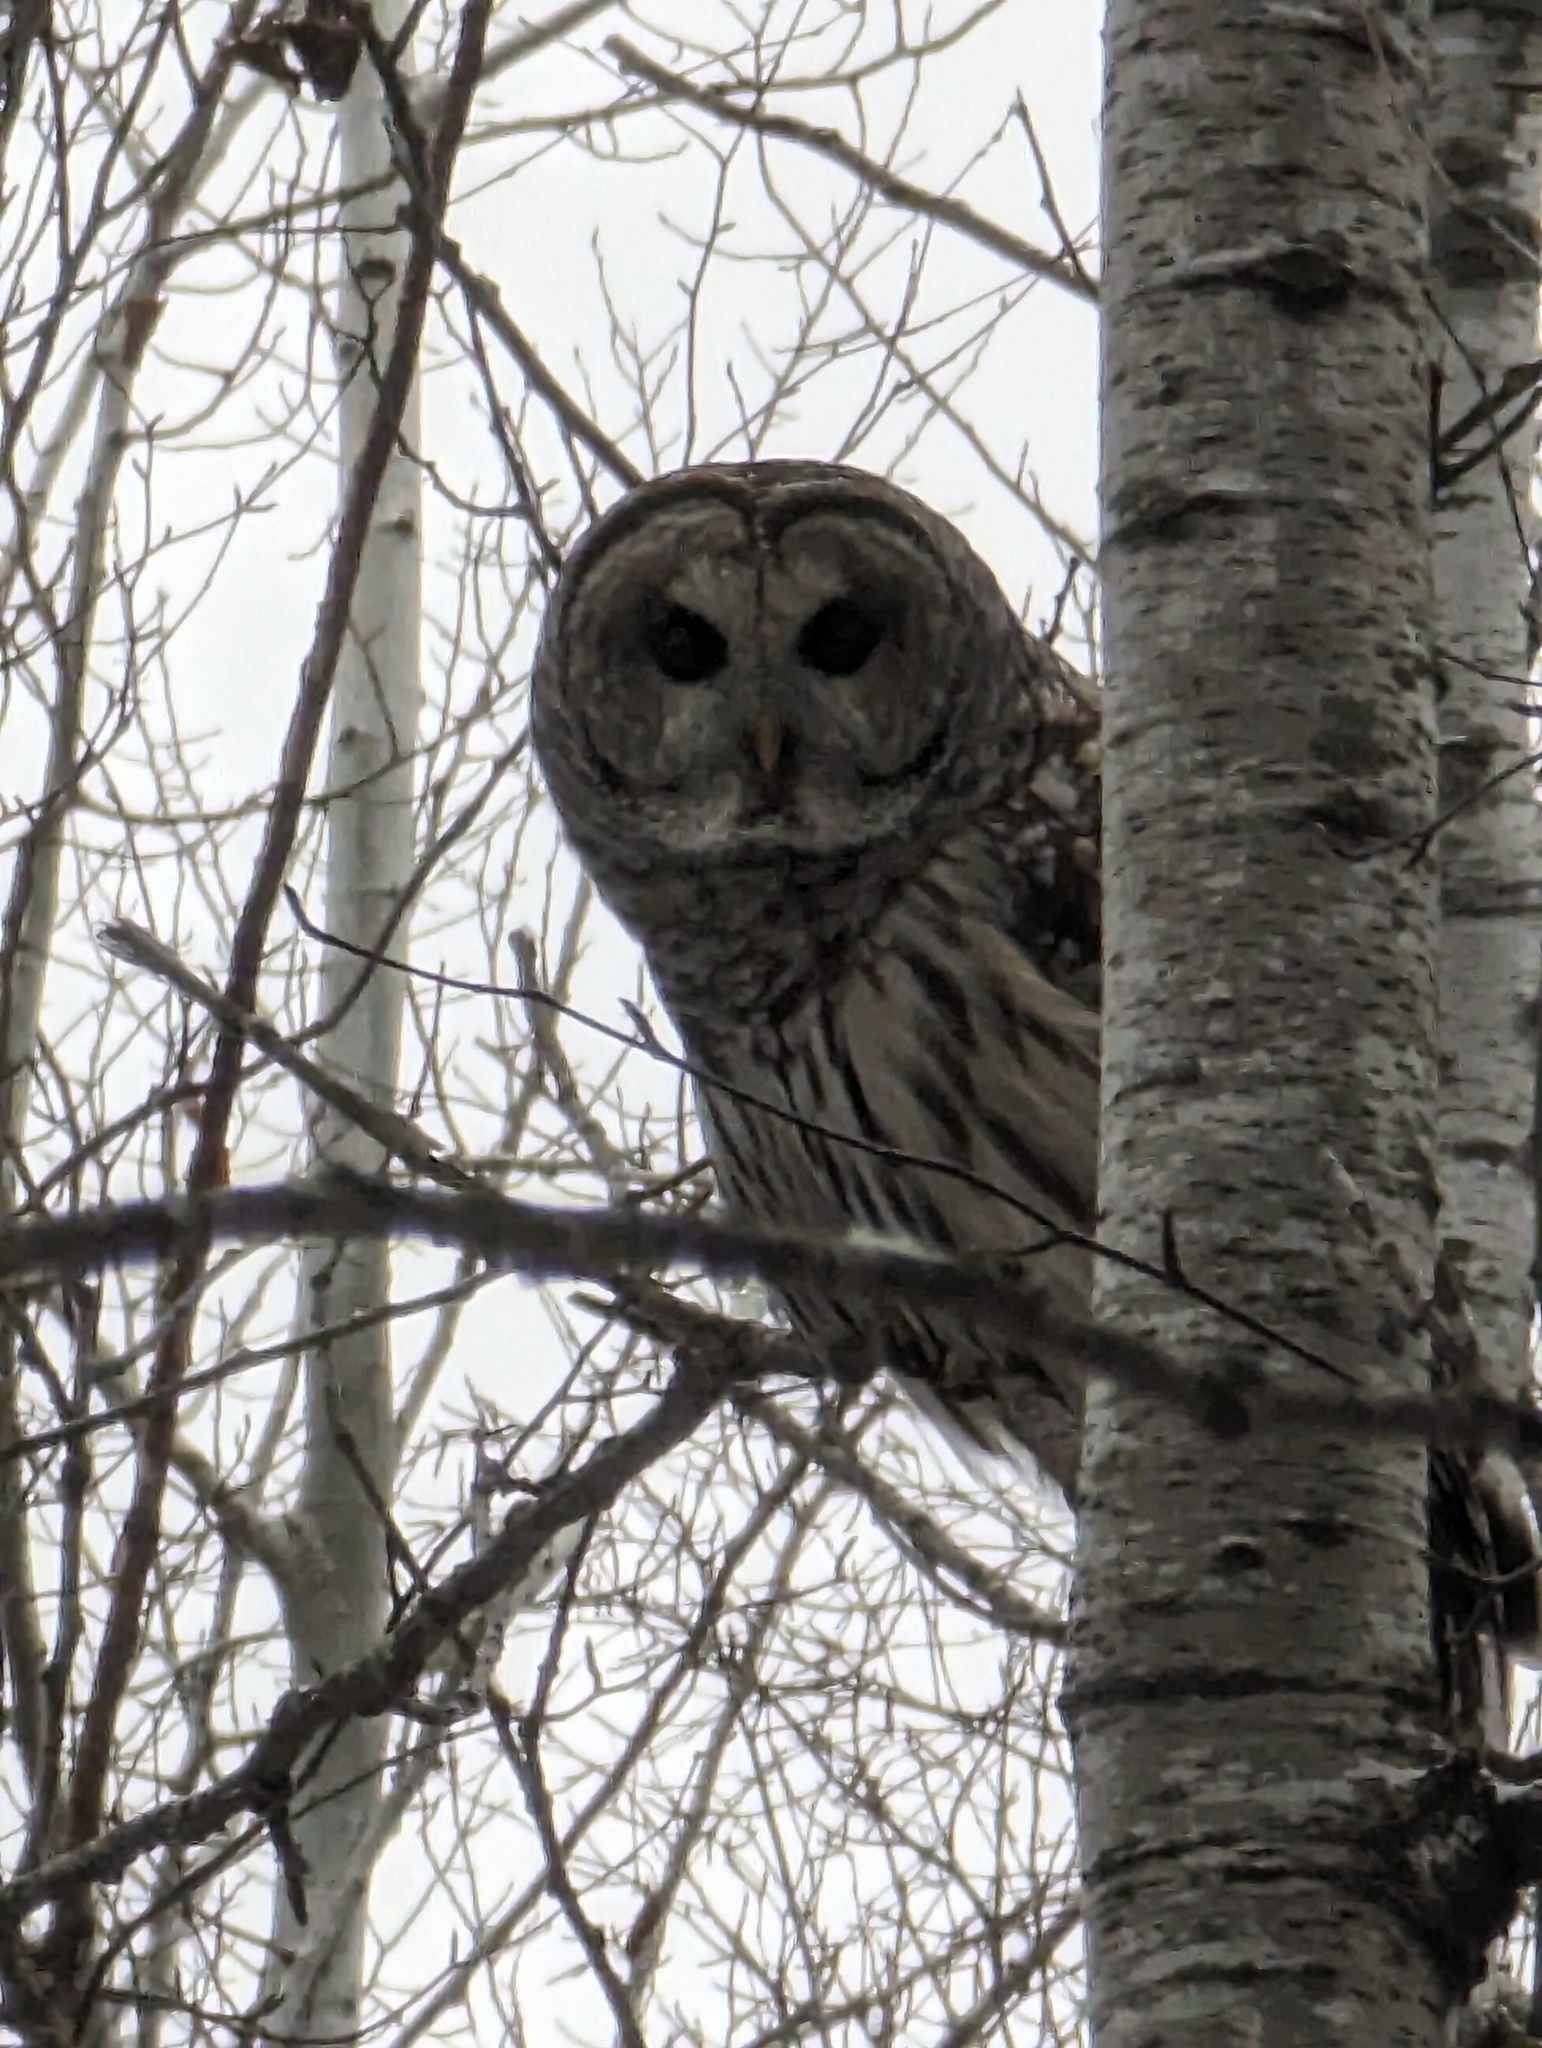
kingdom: Animalia
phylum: Chordata
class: Aves
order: Strigiformes
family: Strigidae
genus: Strix
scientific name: Strix varia
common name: Barred owl
